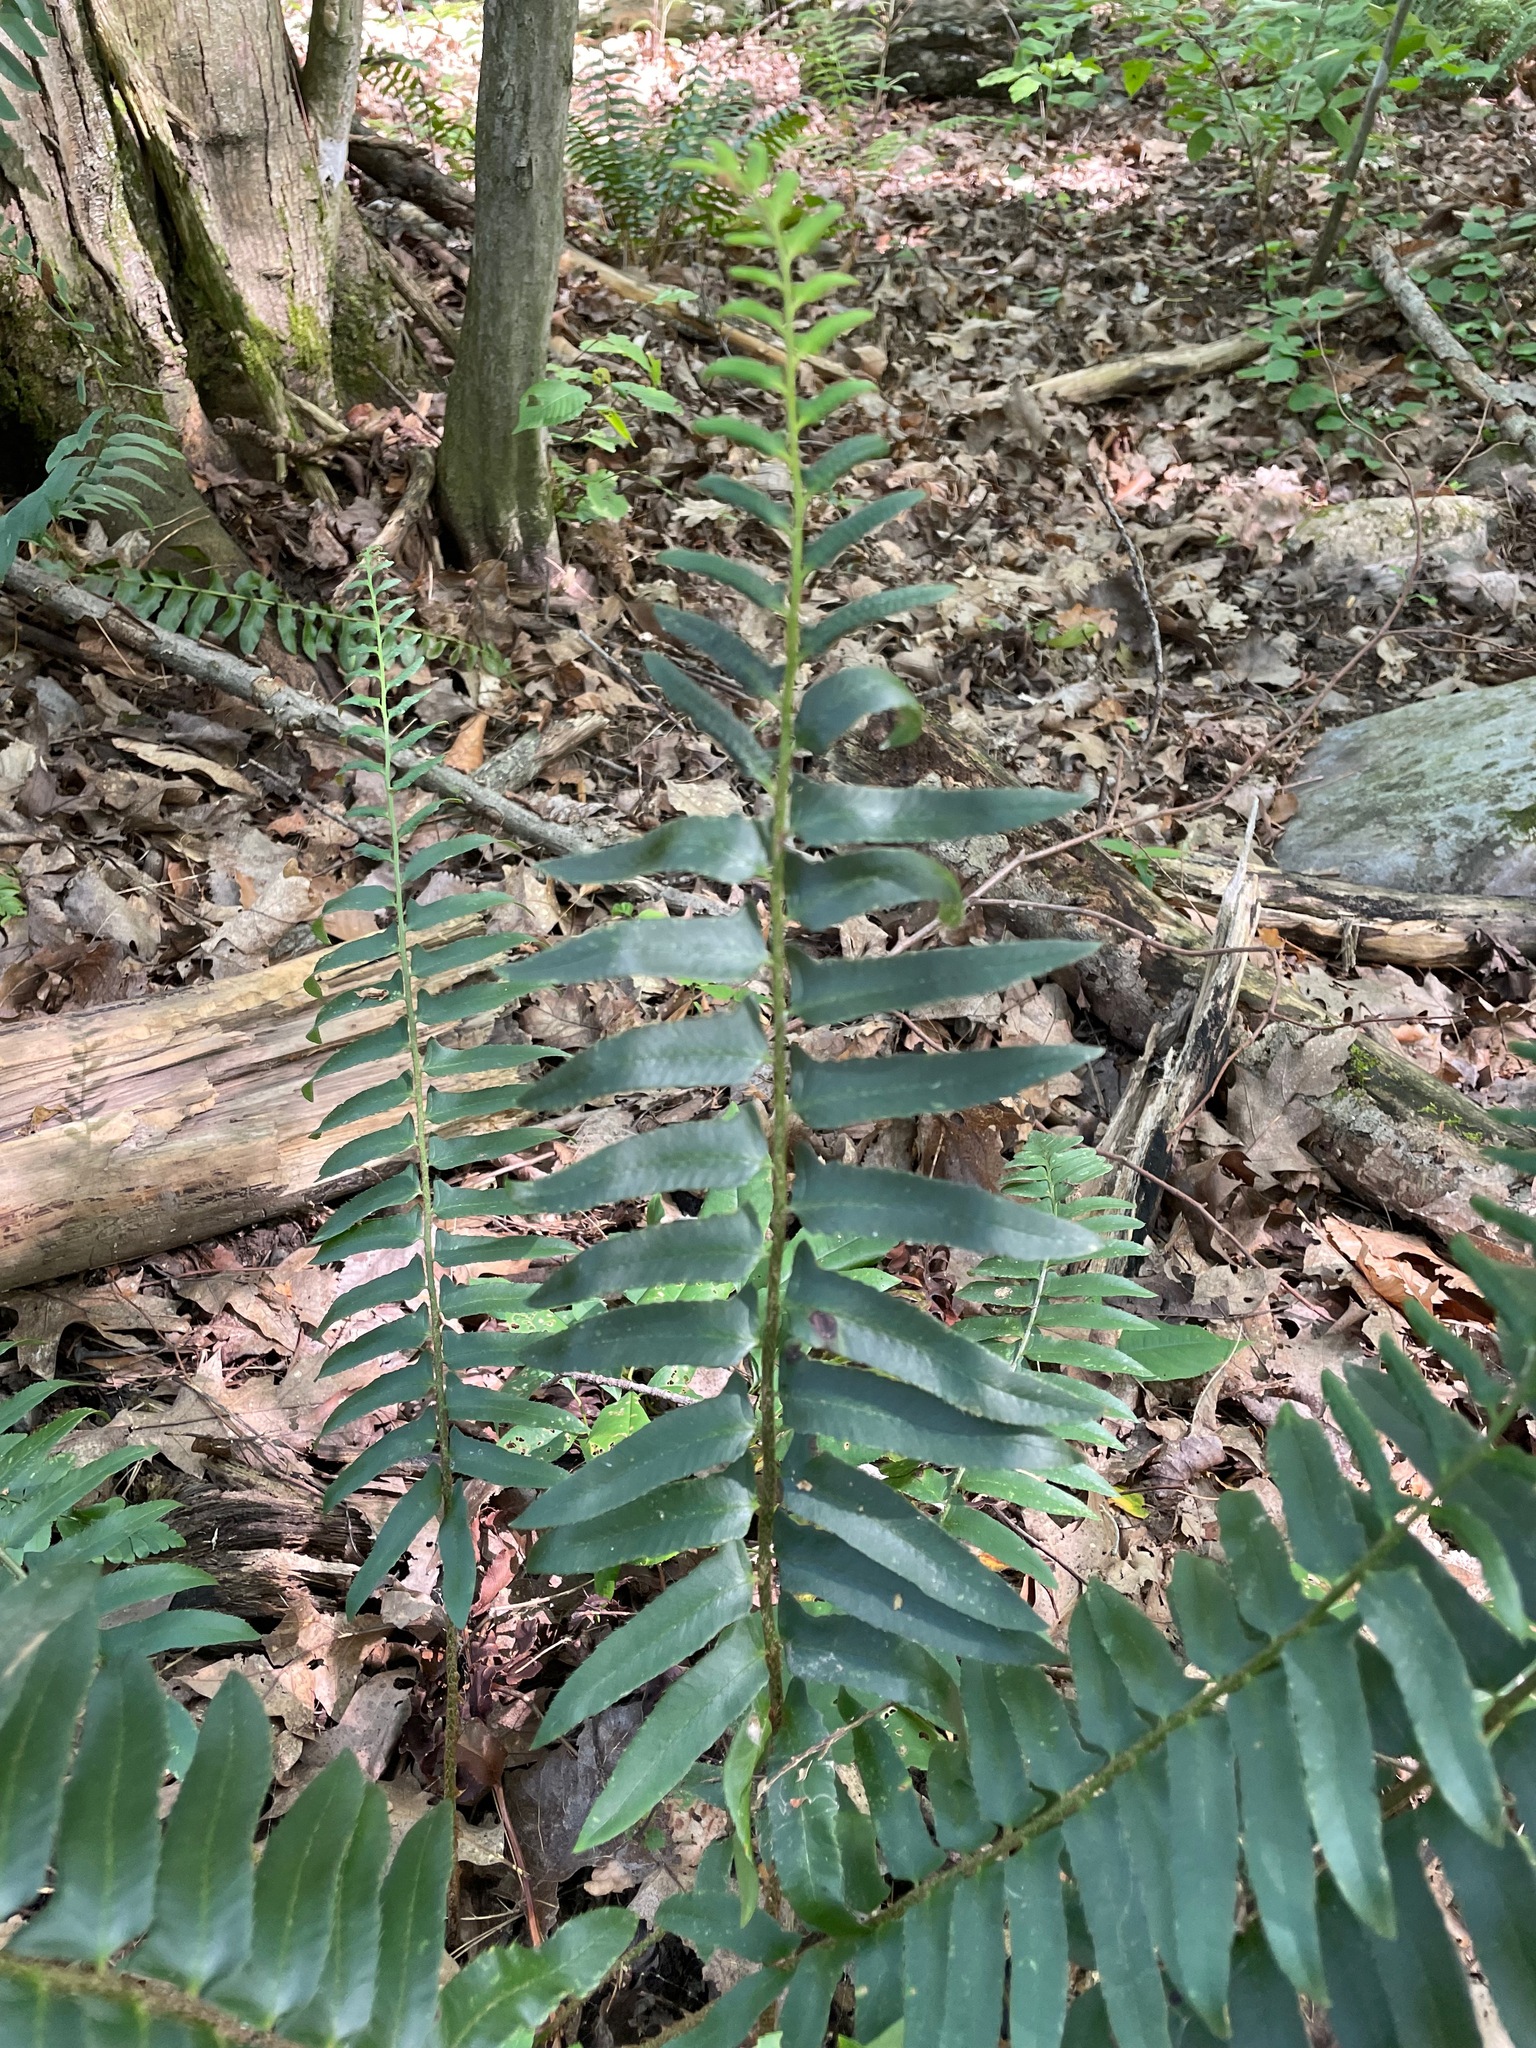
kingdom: Plantae
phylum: Tracheophyta
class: Polypodiopsida
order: Polypodiales
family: Dryopteridaceae
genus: Polystichum
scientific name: Polystichum acrostichoides
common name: Christmas fern
